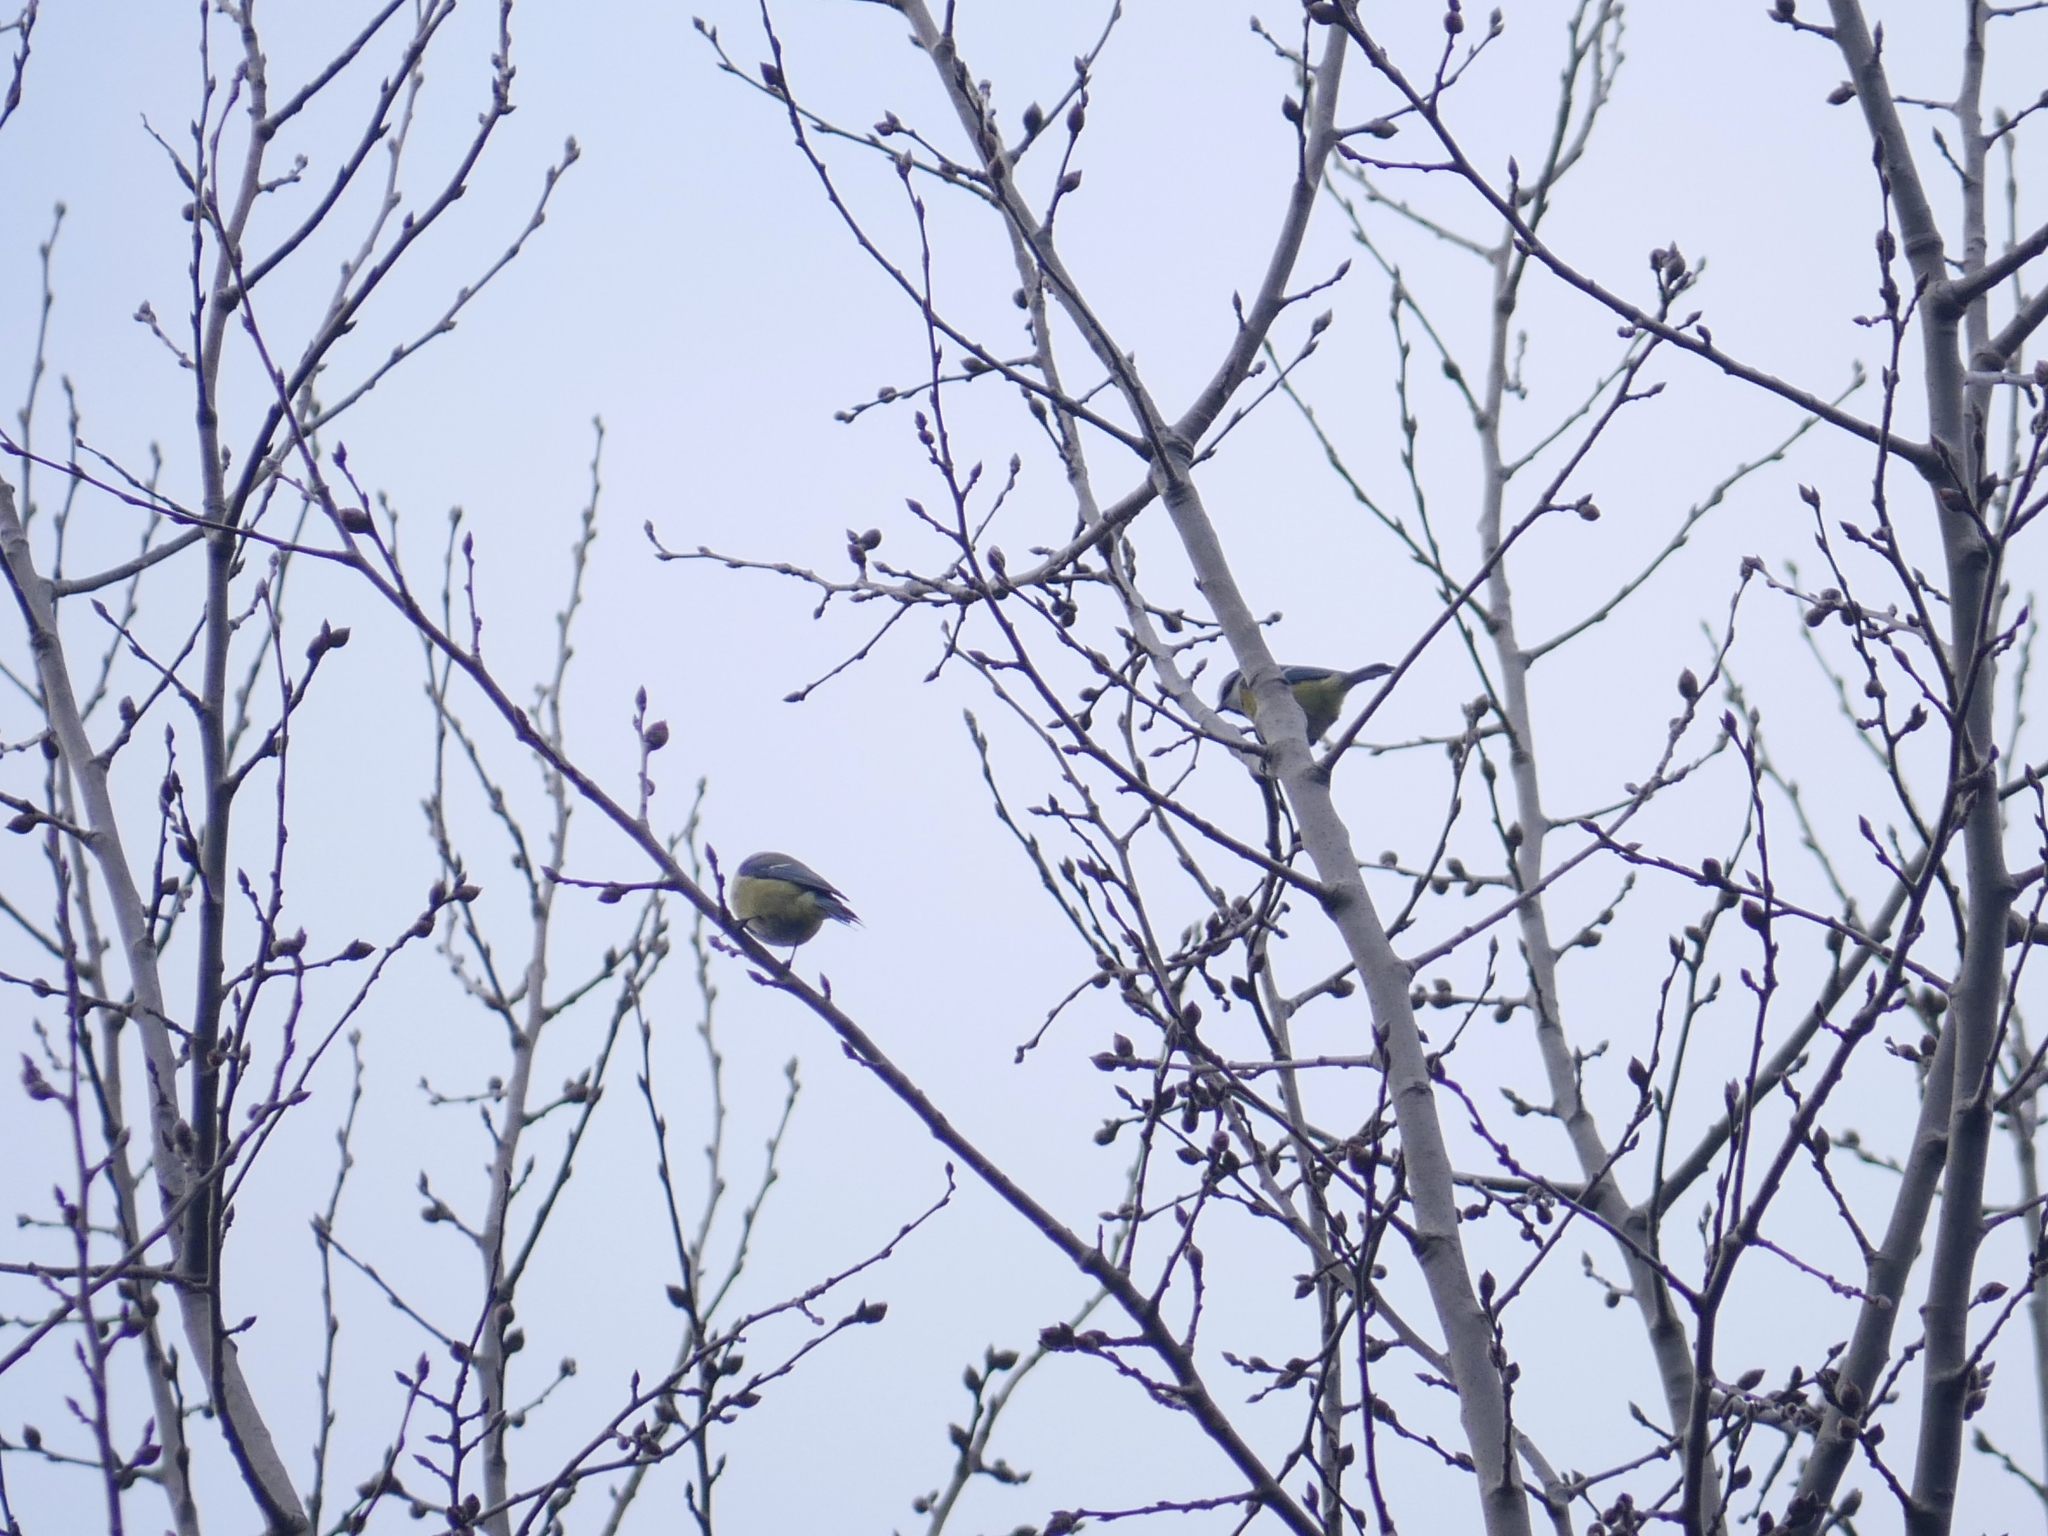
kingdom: Animalia
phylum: Chordata
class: Aves
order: Passeriformes
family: Paridae
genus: Cyanistes
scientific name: Cyanistes caeruleus
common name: Eurasian blue tit
